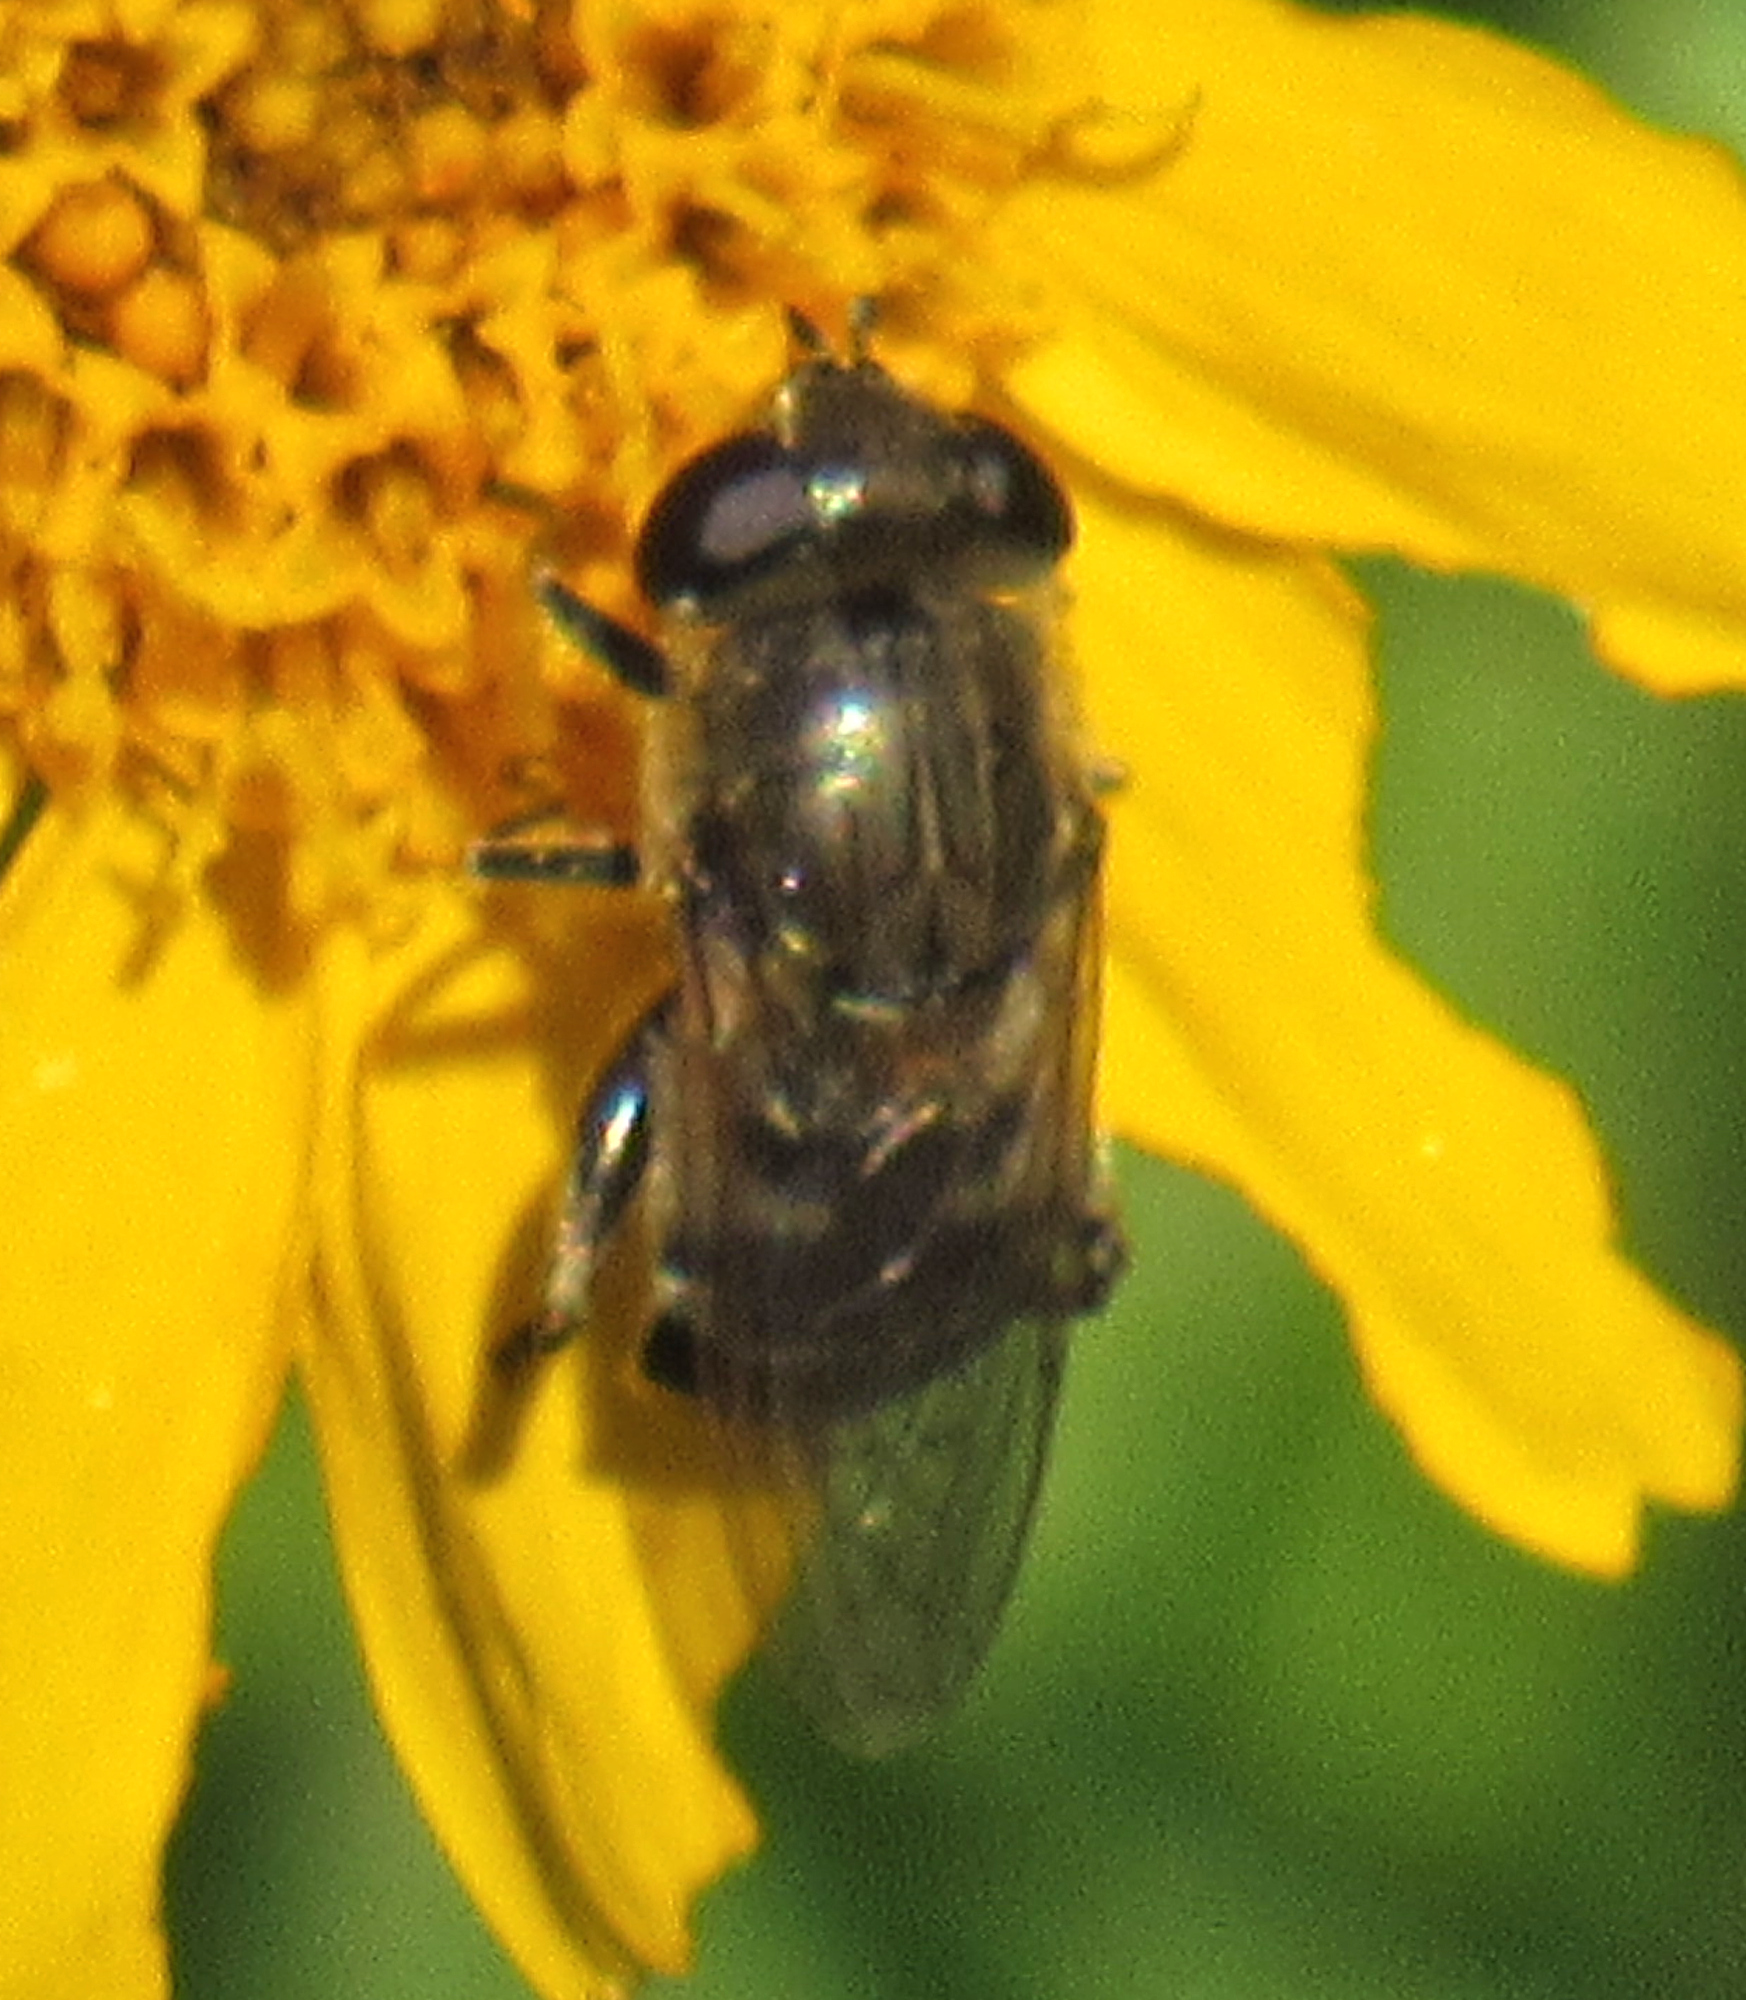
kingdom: Animalia
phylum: Arthropoda
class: Insecta
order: Diptera
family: Syrphidae
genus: Asemosyrphus
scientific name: Asemosyrphus polygrammus
